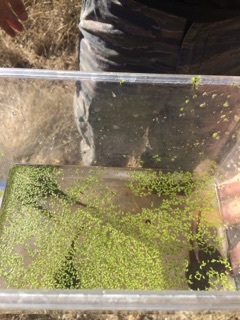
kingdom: Animalia
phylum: Chordata
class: Amphibia
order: Anura
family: Ranidae
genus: Lithobates
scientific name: Lithobates catesbeianus
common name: American bullfrog
